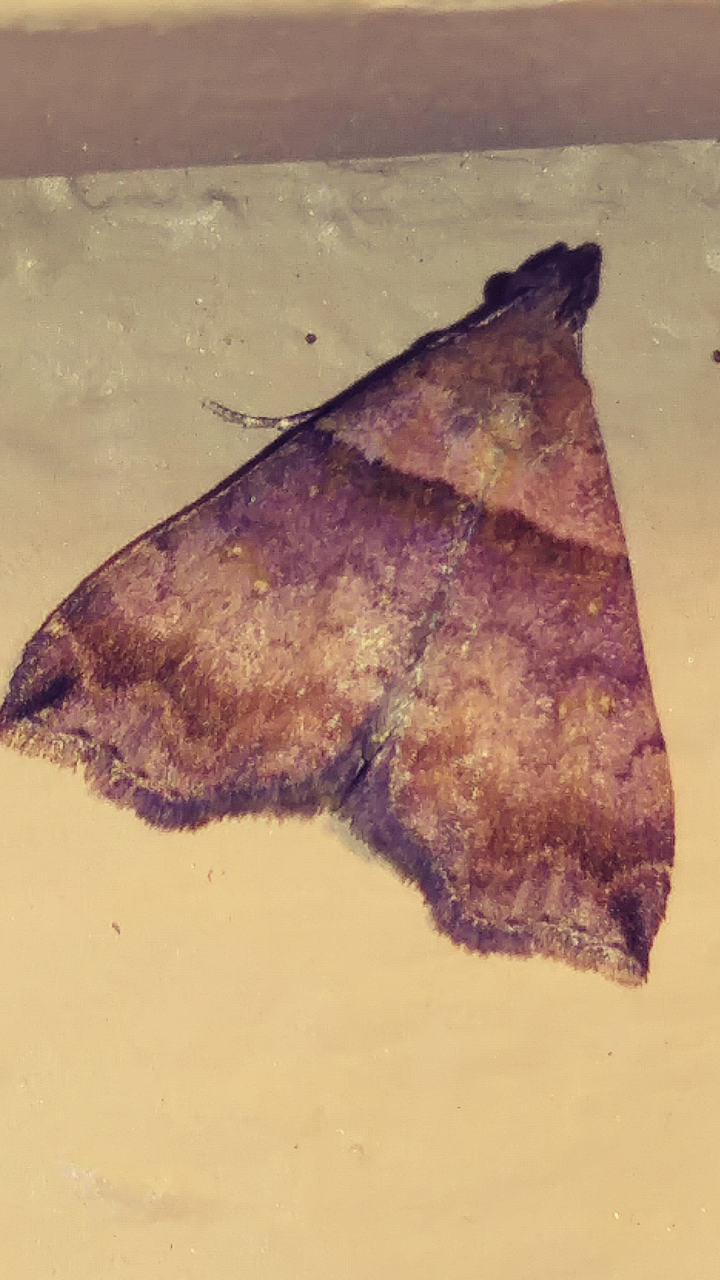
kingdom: Animalia
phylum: Arthropoda
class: Insecta
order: Lepidoptera
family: Erebidae
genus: Lascoria
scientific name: Lascoria ambigualis
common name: Ambiguous moth
